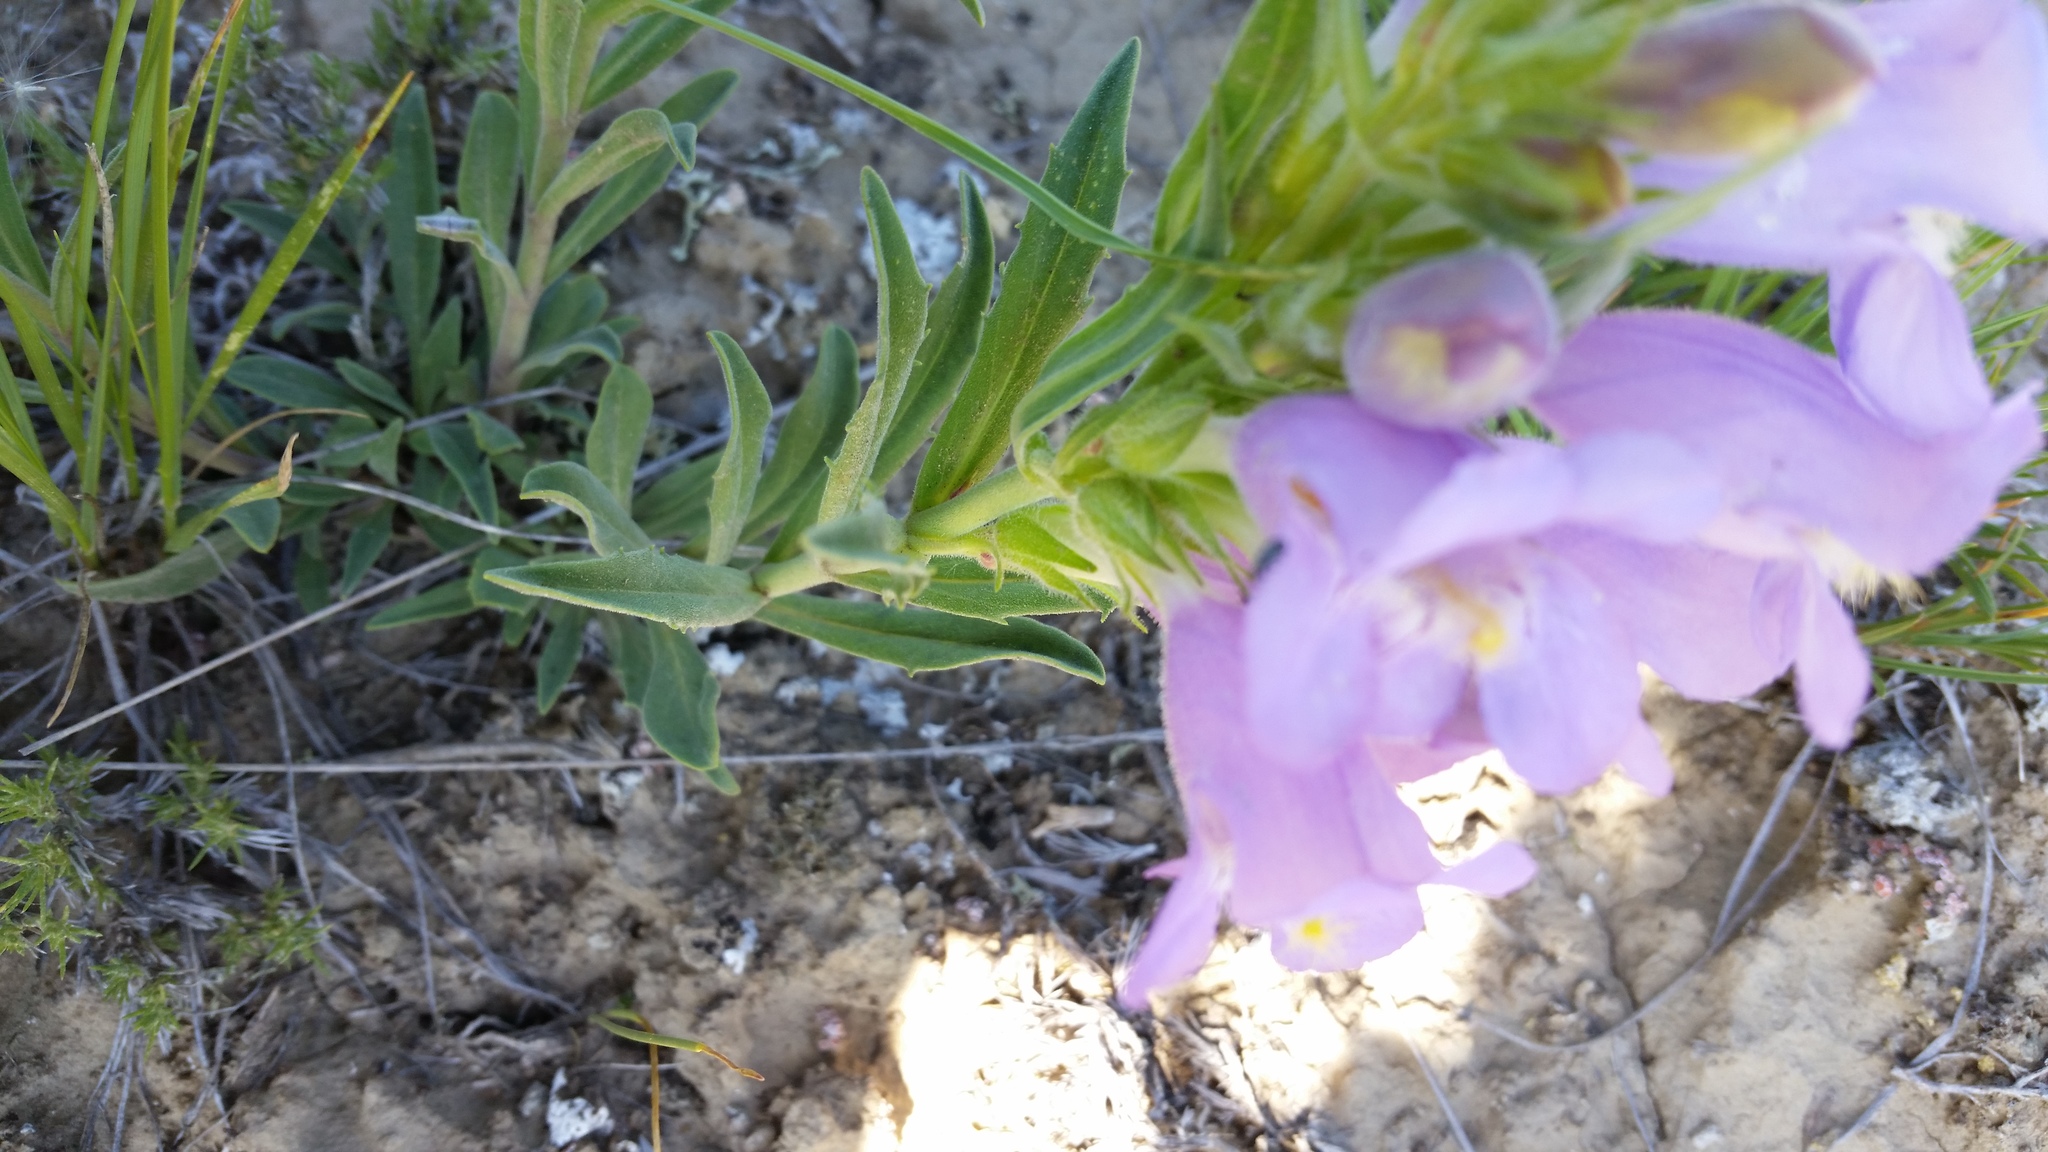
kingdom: Plantae
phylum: Tracheophyta
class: Magnoliopsida
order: Lamiales
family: Plantaginaceae
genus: Penstemon
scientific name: Penstemon eriantherus
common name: Crested beardtongue
